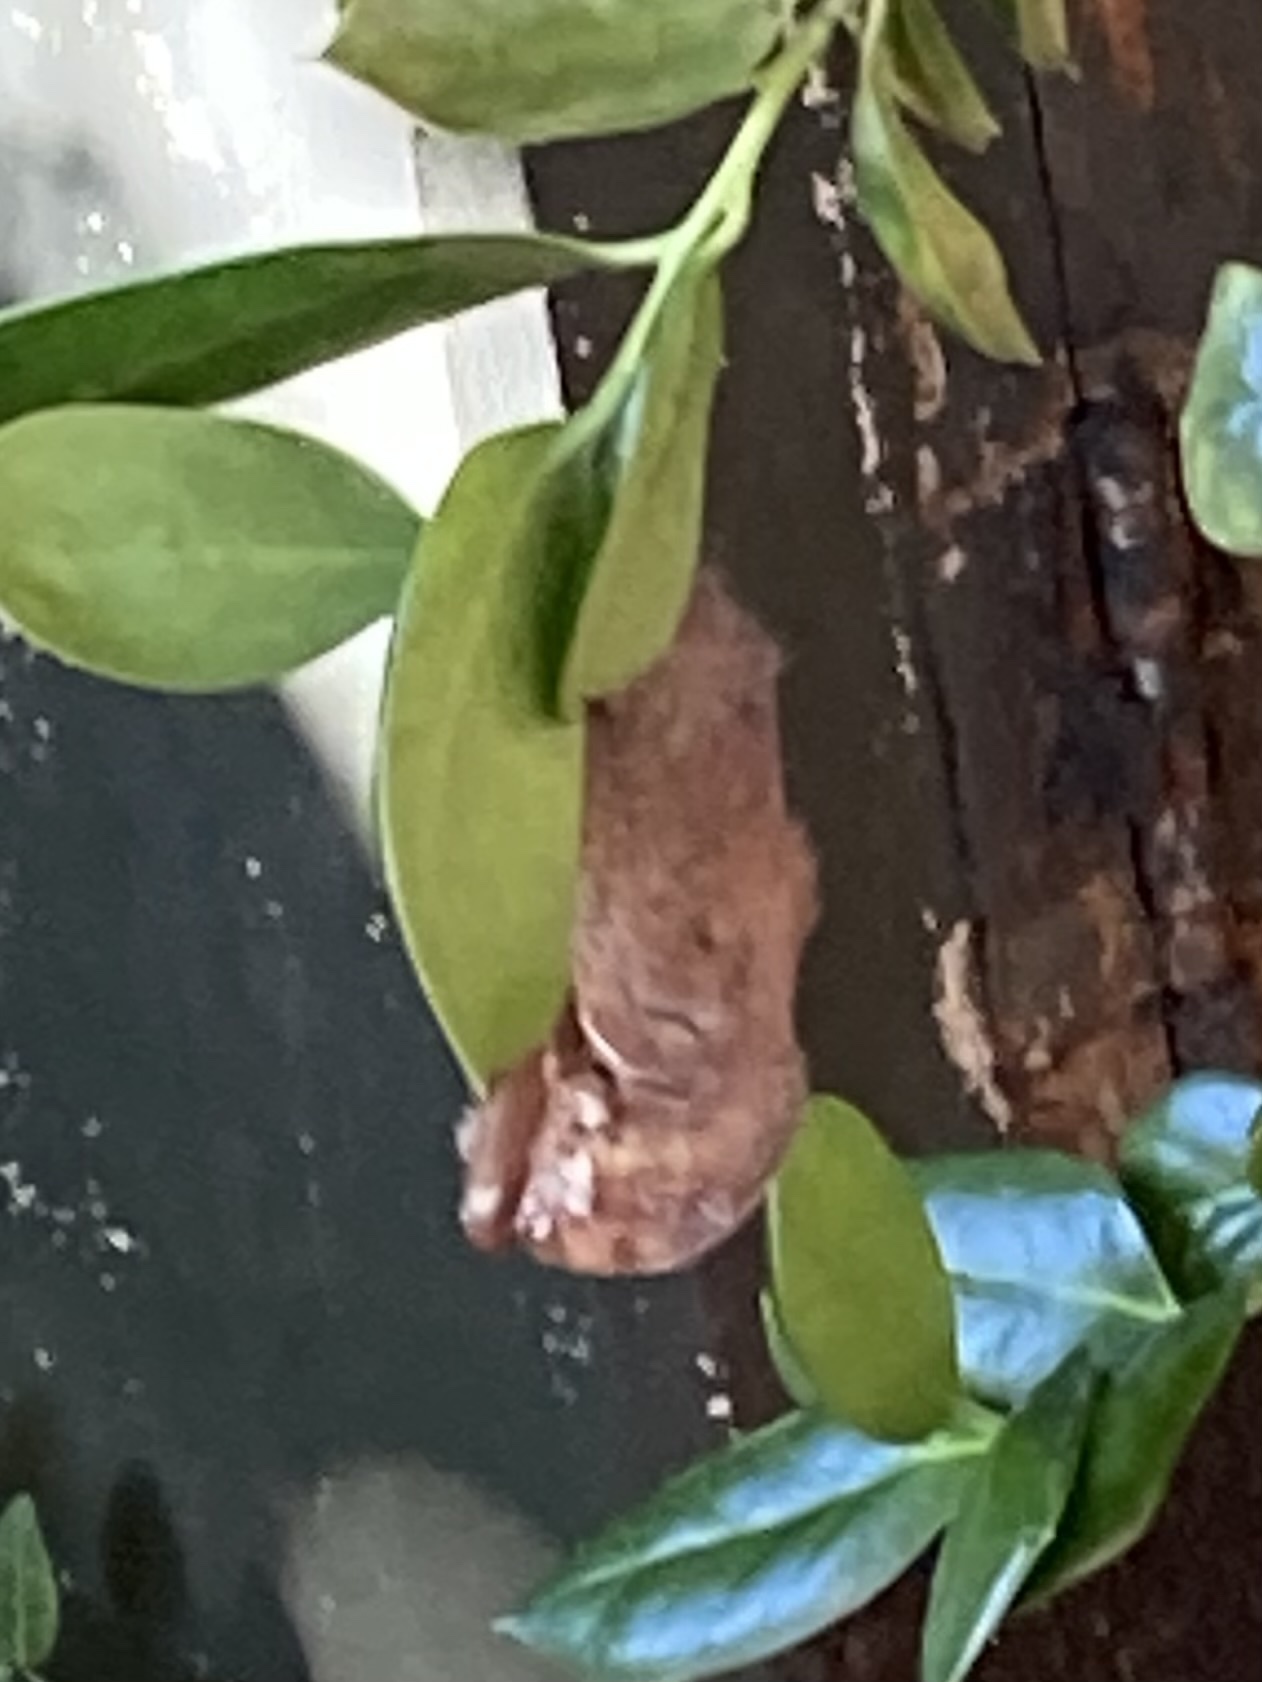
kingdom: Animalia
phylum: Chordata
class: Mammalia
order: Chiroptera
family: Vespertilionidae
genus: Lasiurus
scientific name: Lasiurus borealis
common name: Eastern red bat
